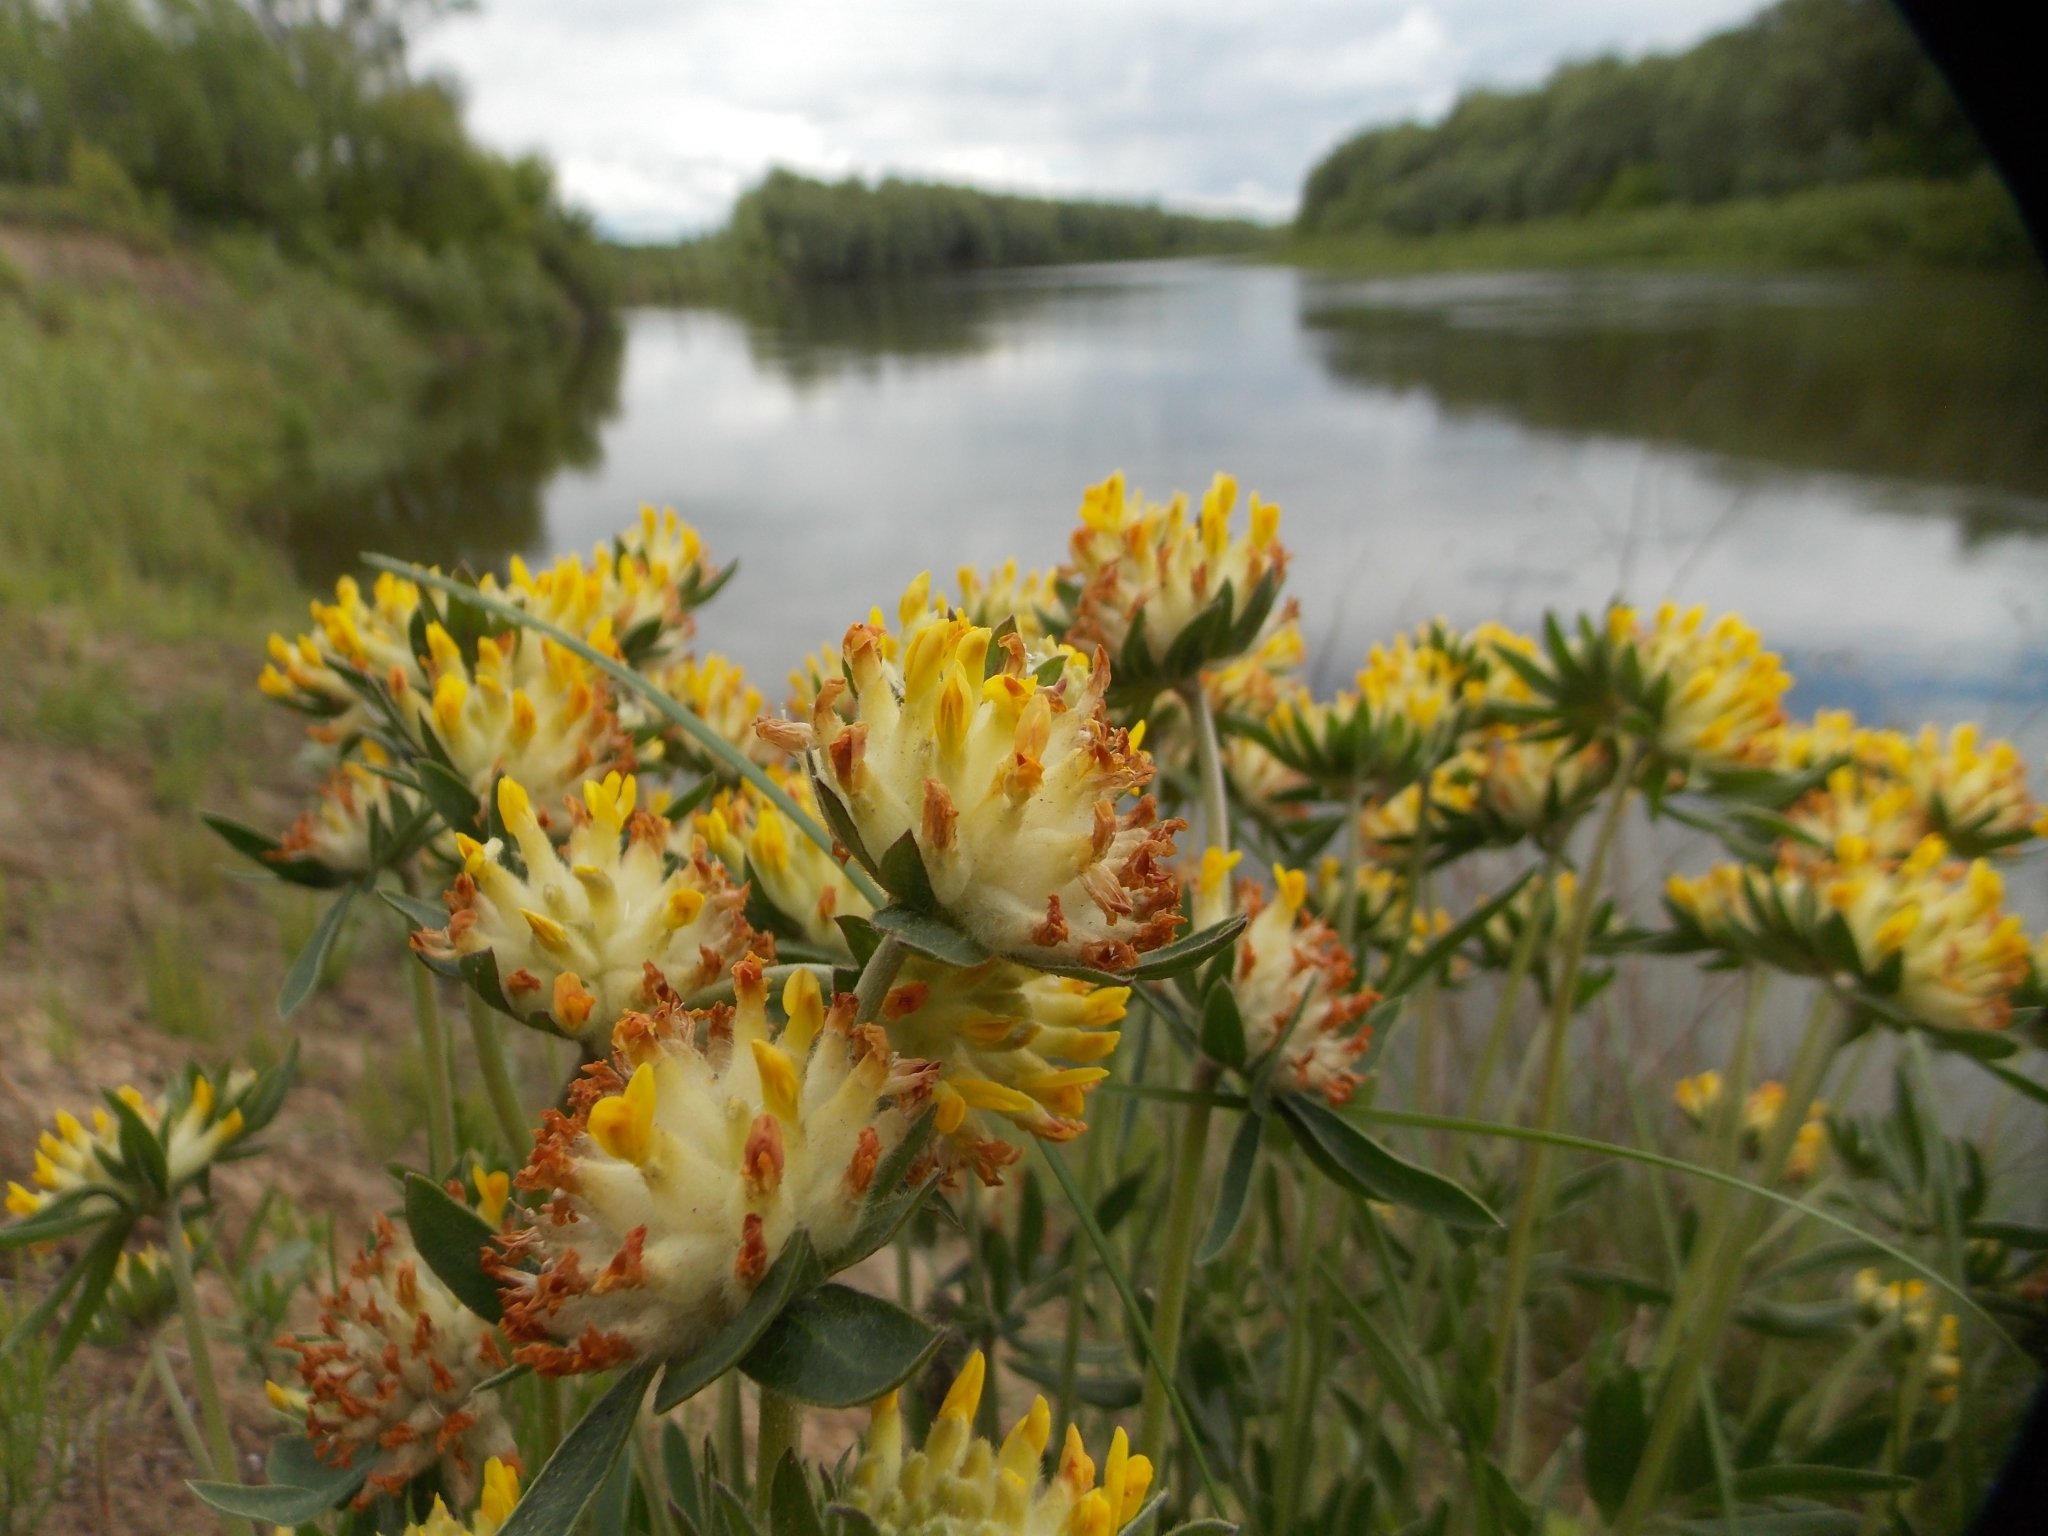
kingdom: Plantae
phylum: Tracheophyta
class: Magnoliopsida
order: Fabales
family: Fabaceae
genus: Anthyllis
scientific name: Anthyllis vulneraria
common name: Kidney vetch
